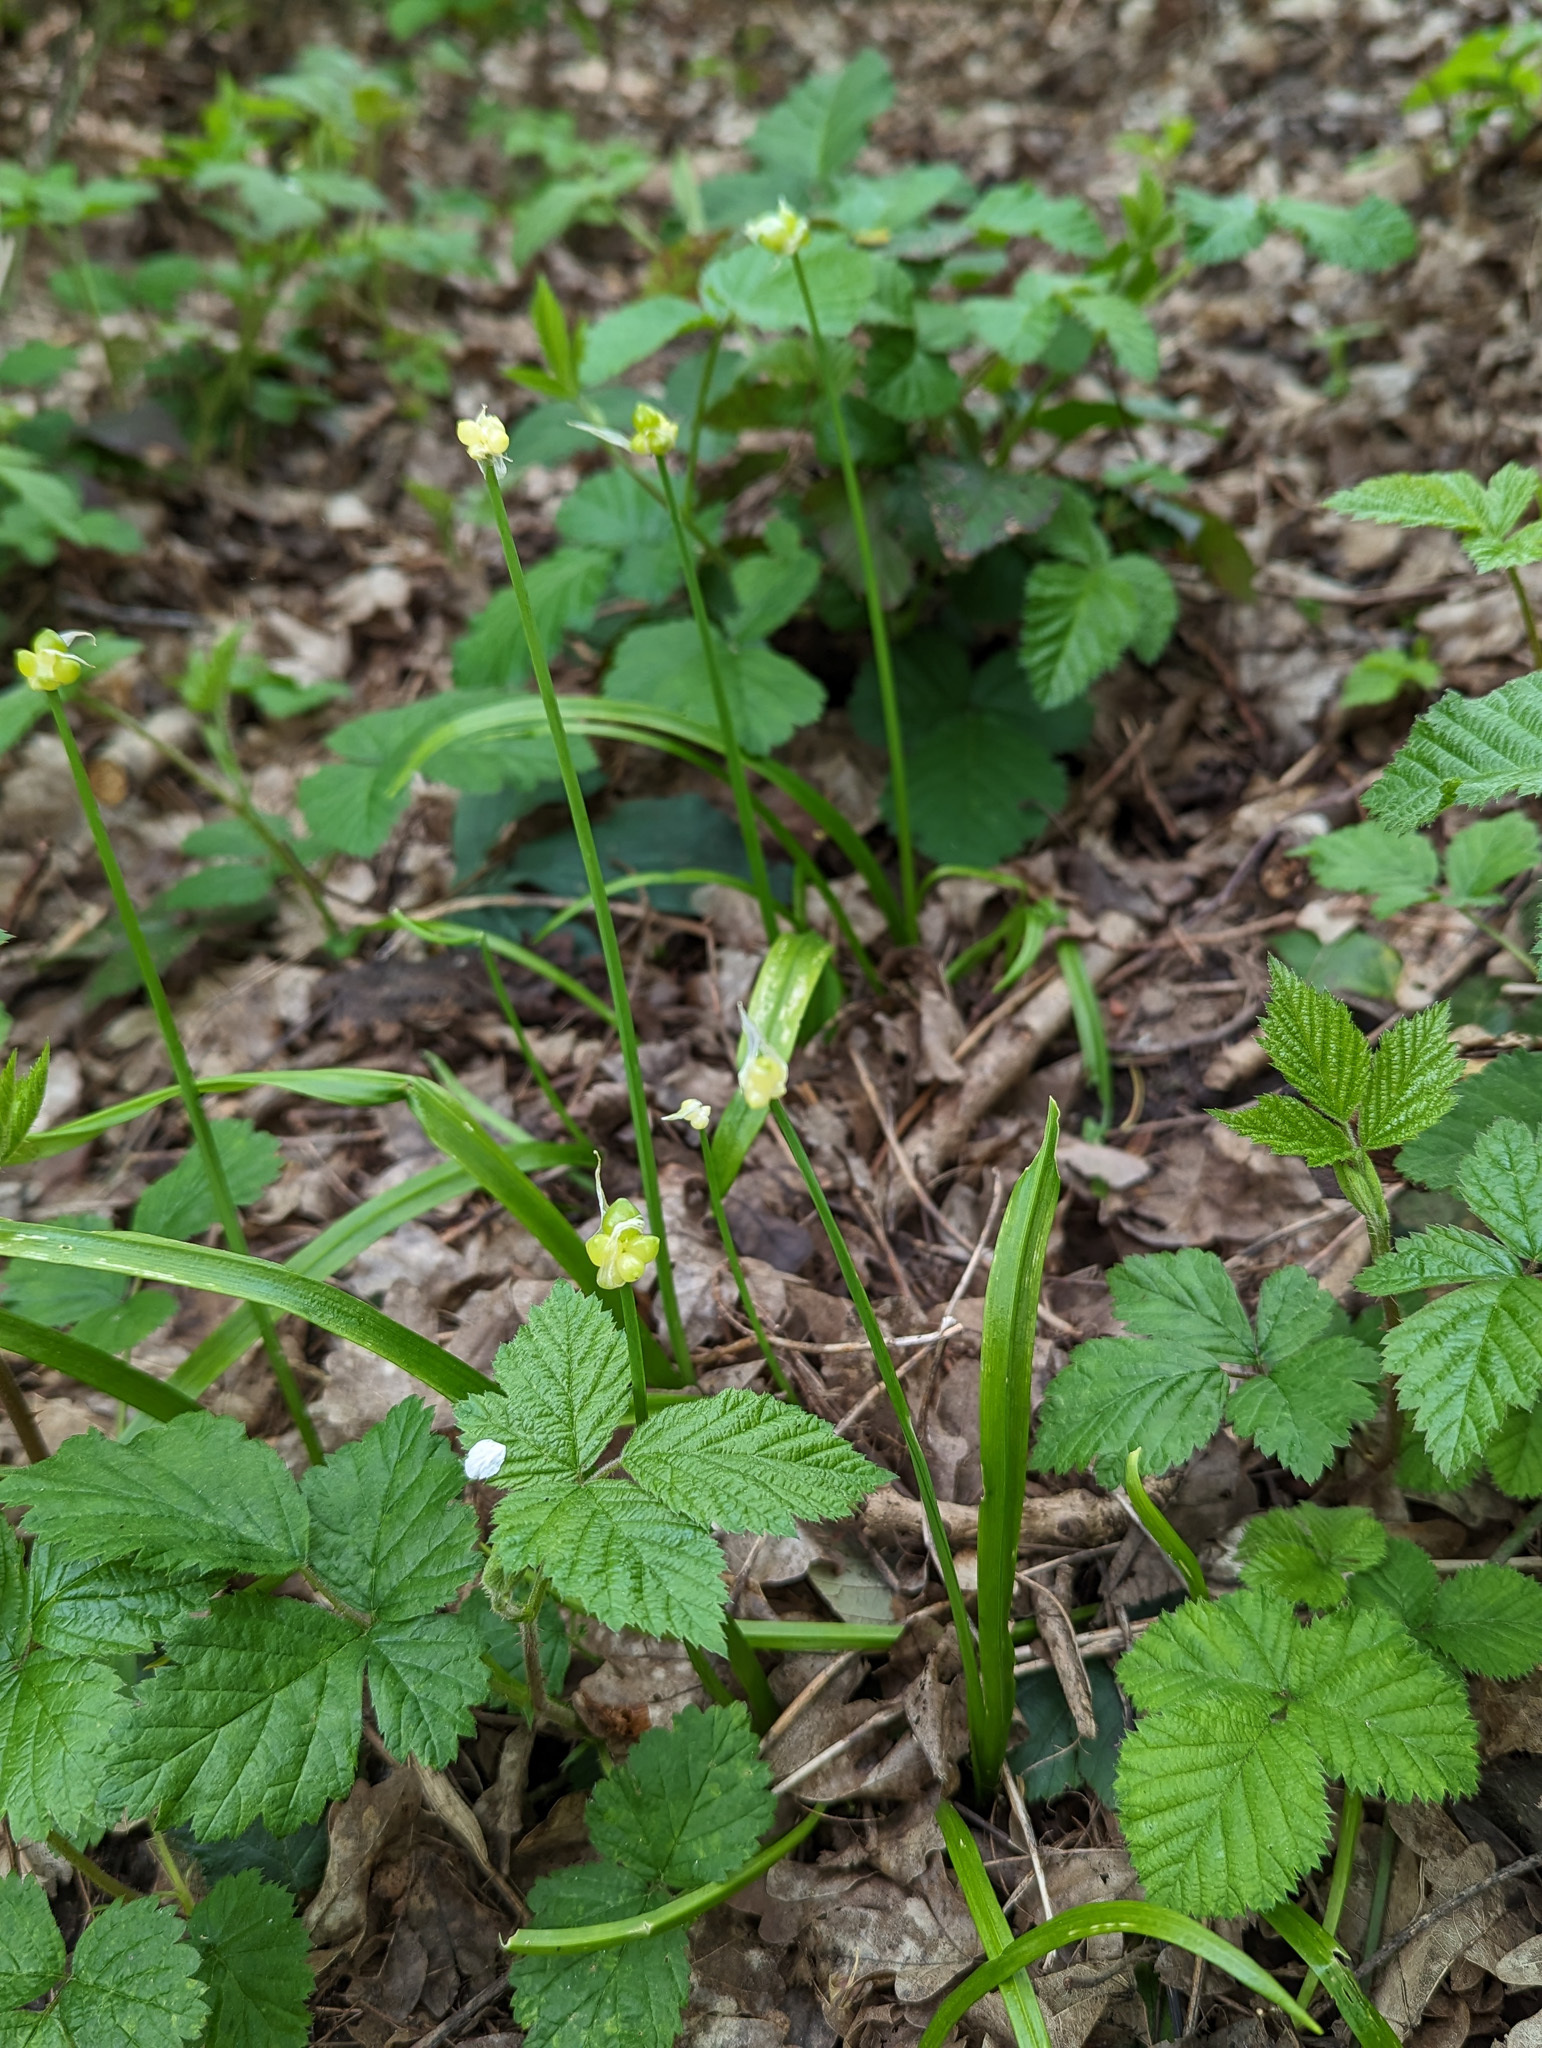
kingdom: Plantae
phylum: Tracheophyta
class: Liliopsida
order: Asparagales
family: Amaryllidaceae
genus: Allium
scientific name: Allium paradoxum
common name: Few-flowered garlic
